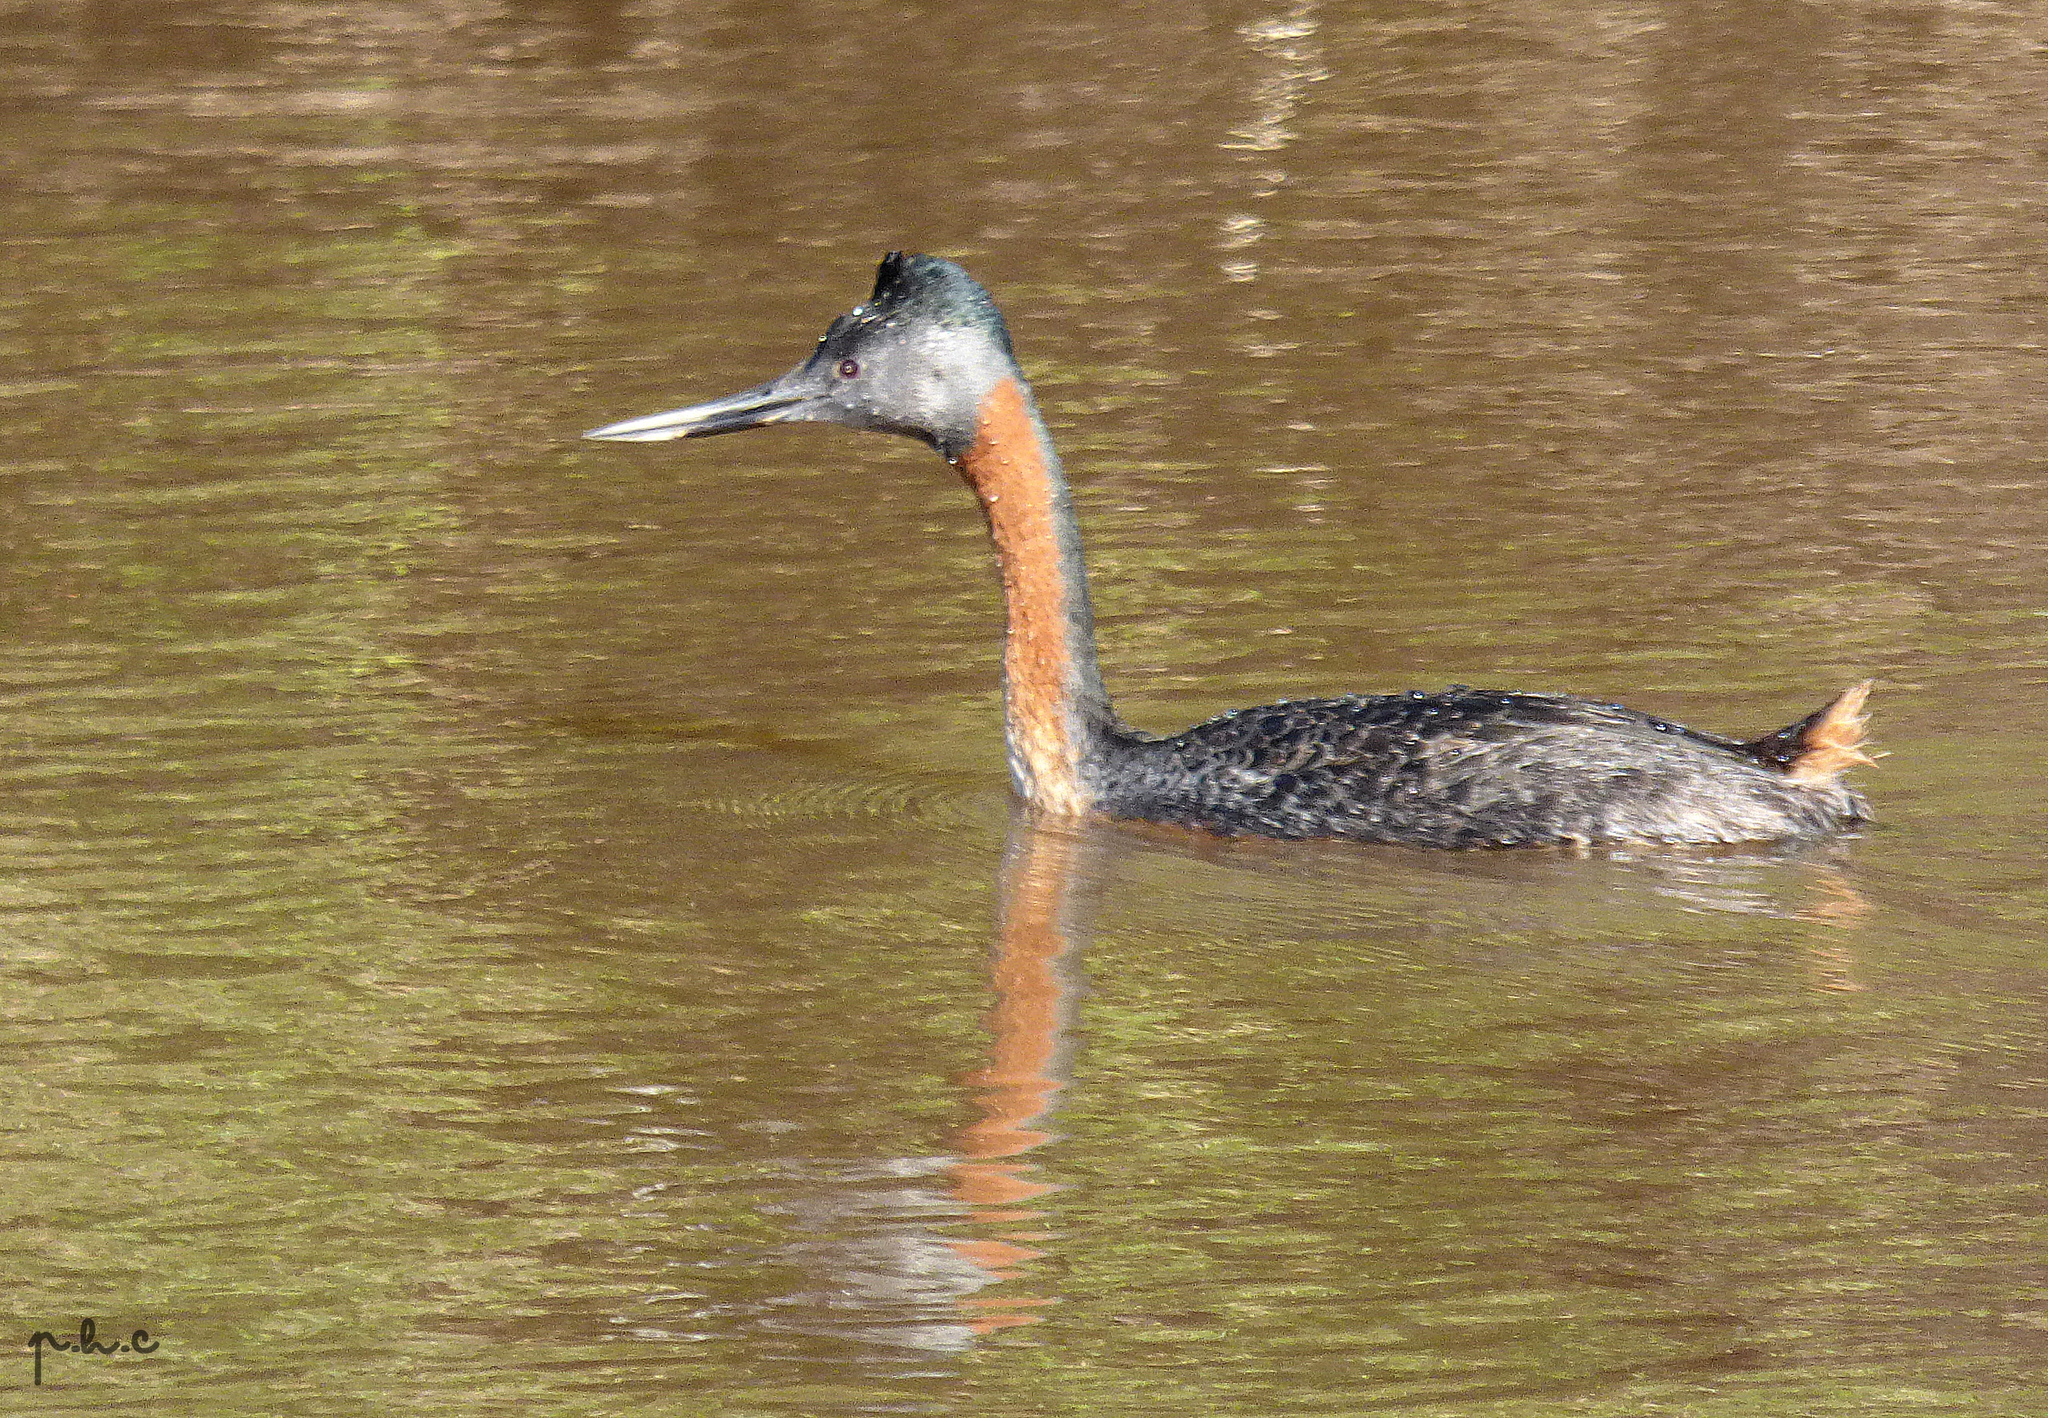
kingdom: Animalia
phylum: Chordata
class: Aves
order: Podicipediformes
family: Podicipedidae
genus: Podiceps
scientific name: Podiceps major
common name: Great grebe
